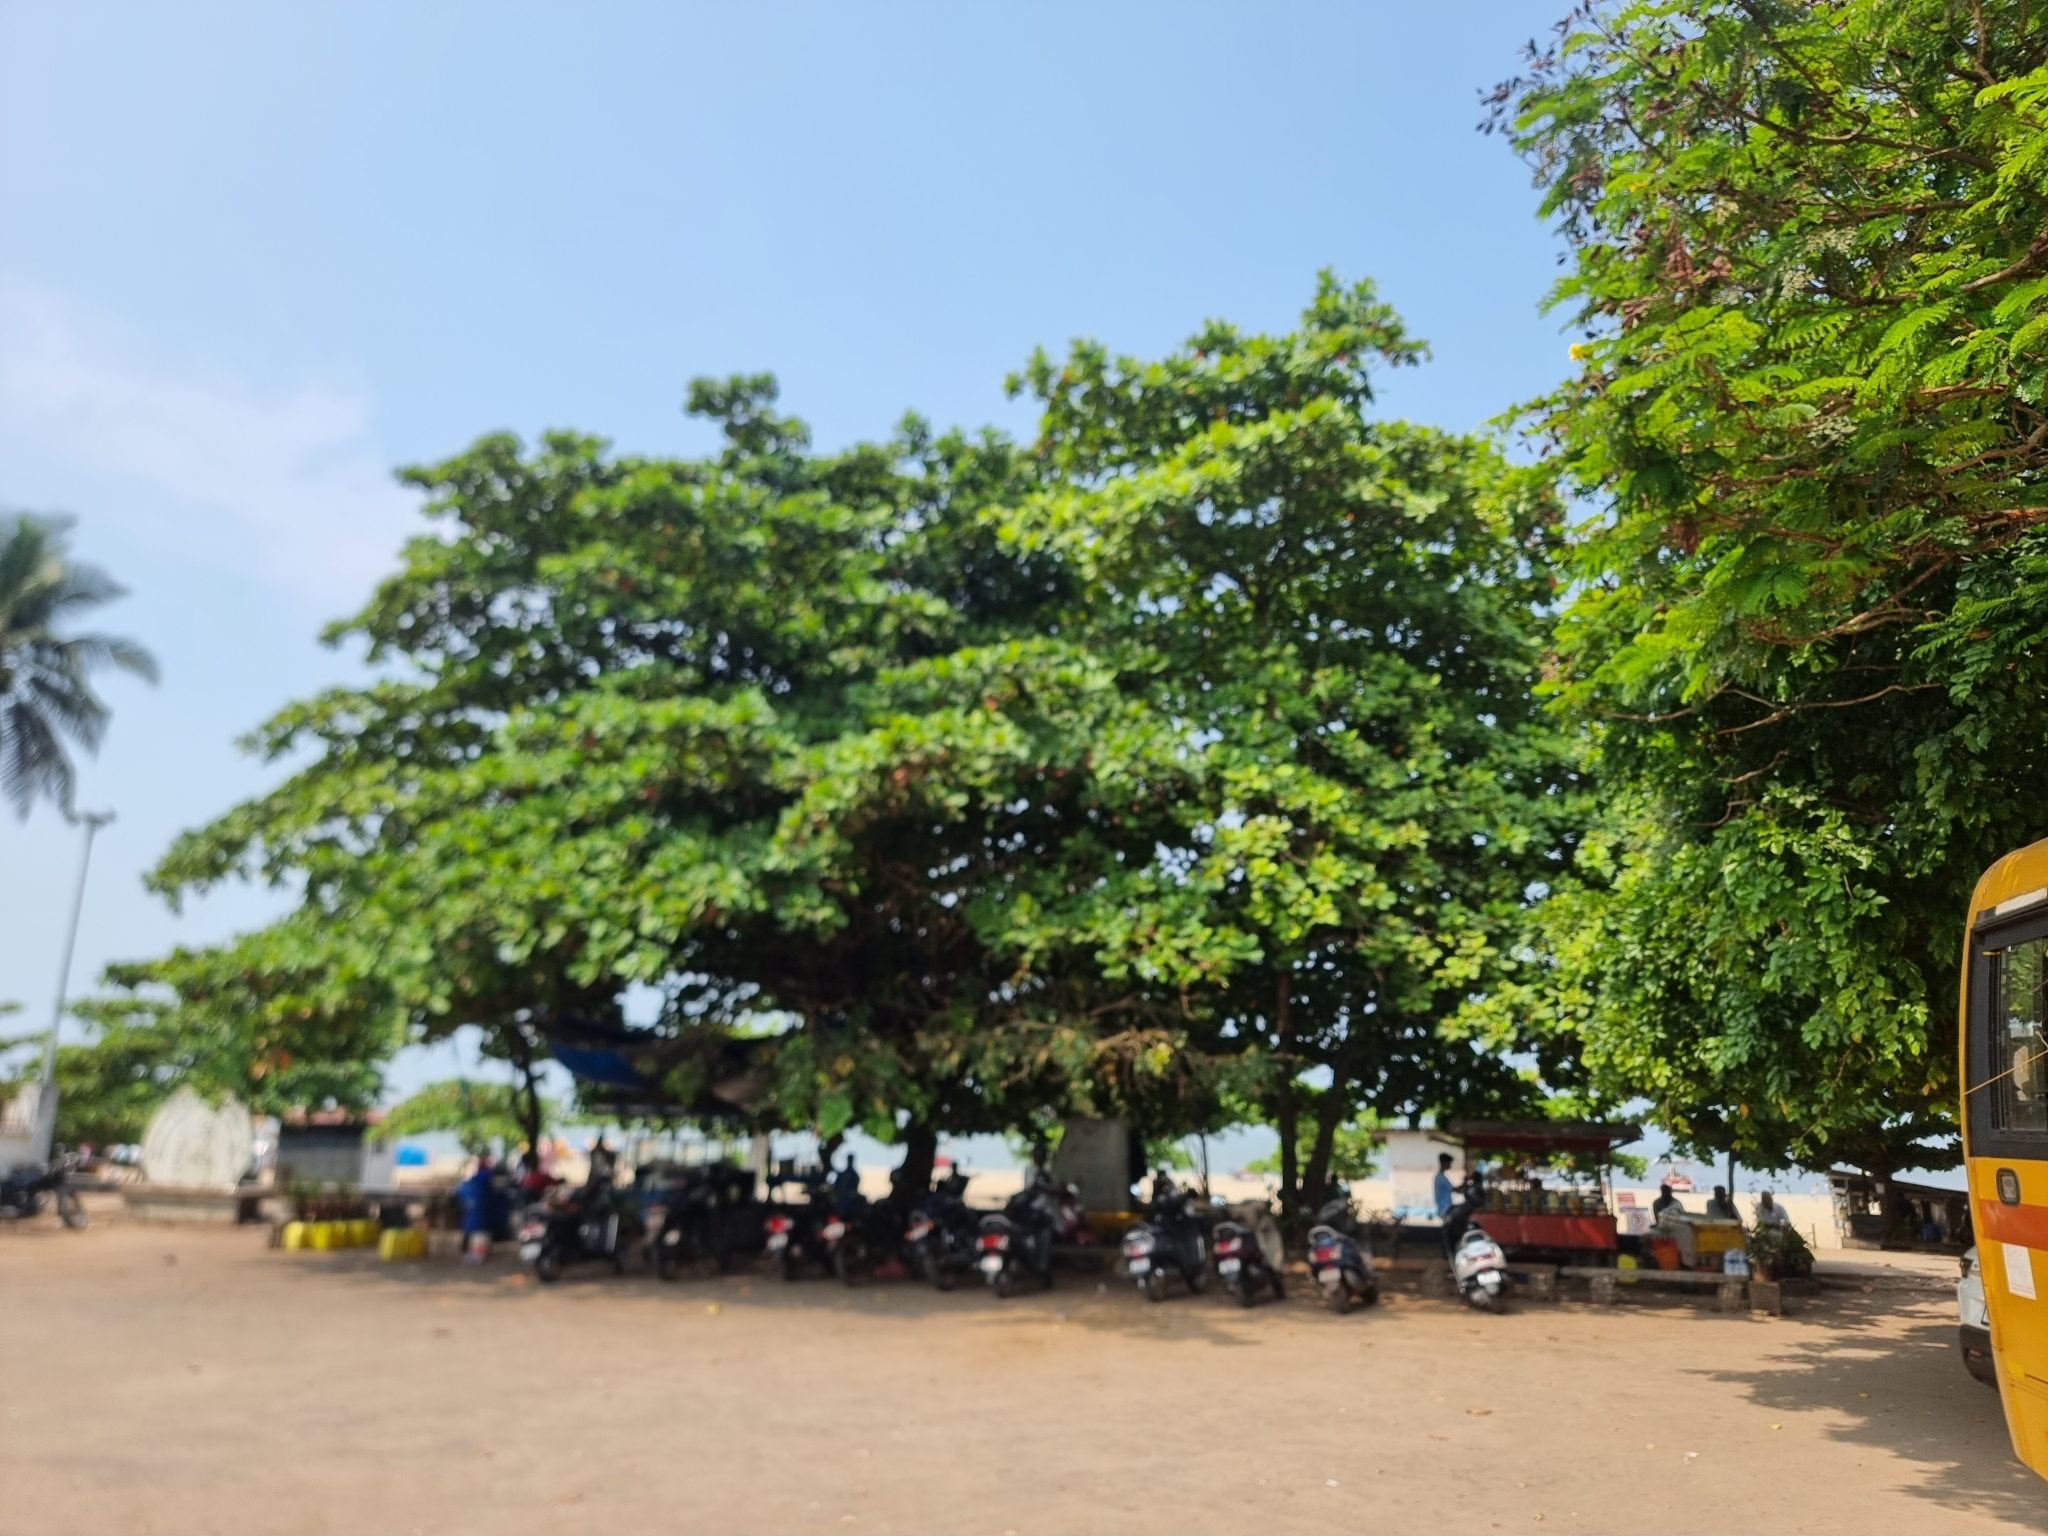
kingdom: Plantae
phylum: Tracheophyta
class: Magnoliopsida
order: Myrtales
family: Combretaceae
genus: Terminalia
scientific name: Terminalia catappa
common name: Tropical almond
